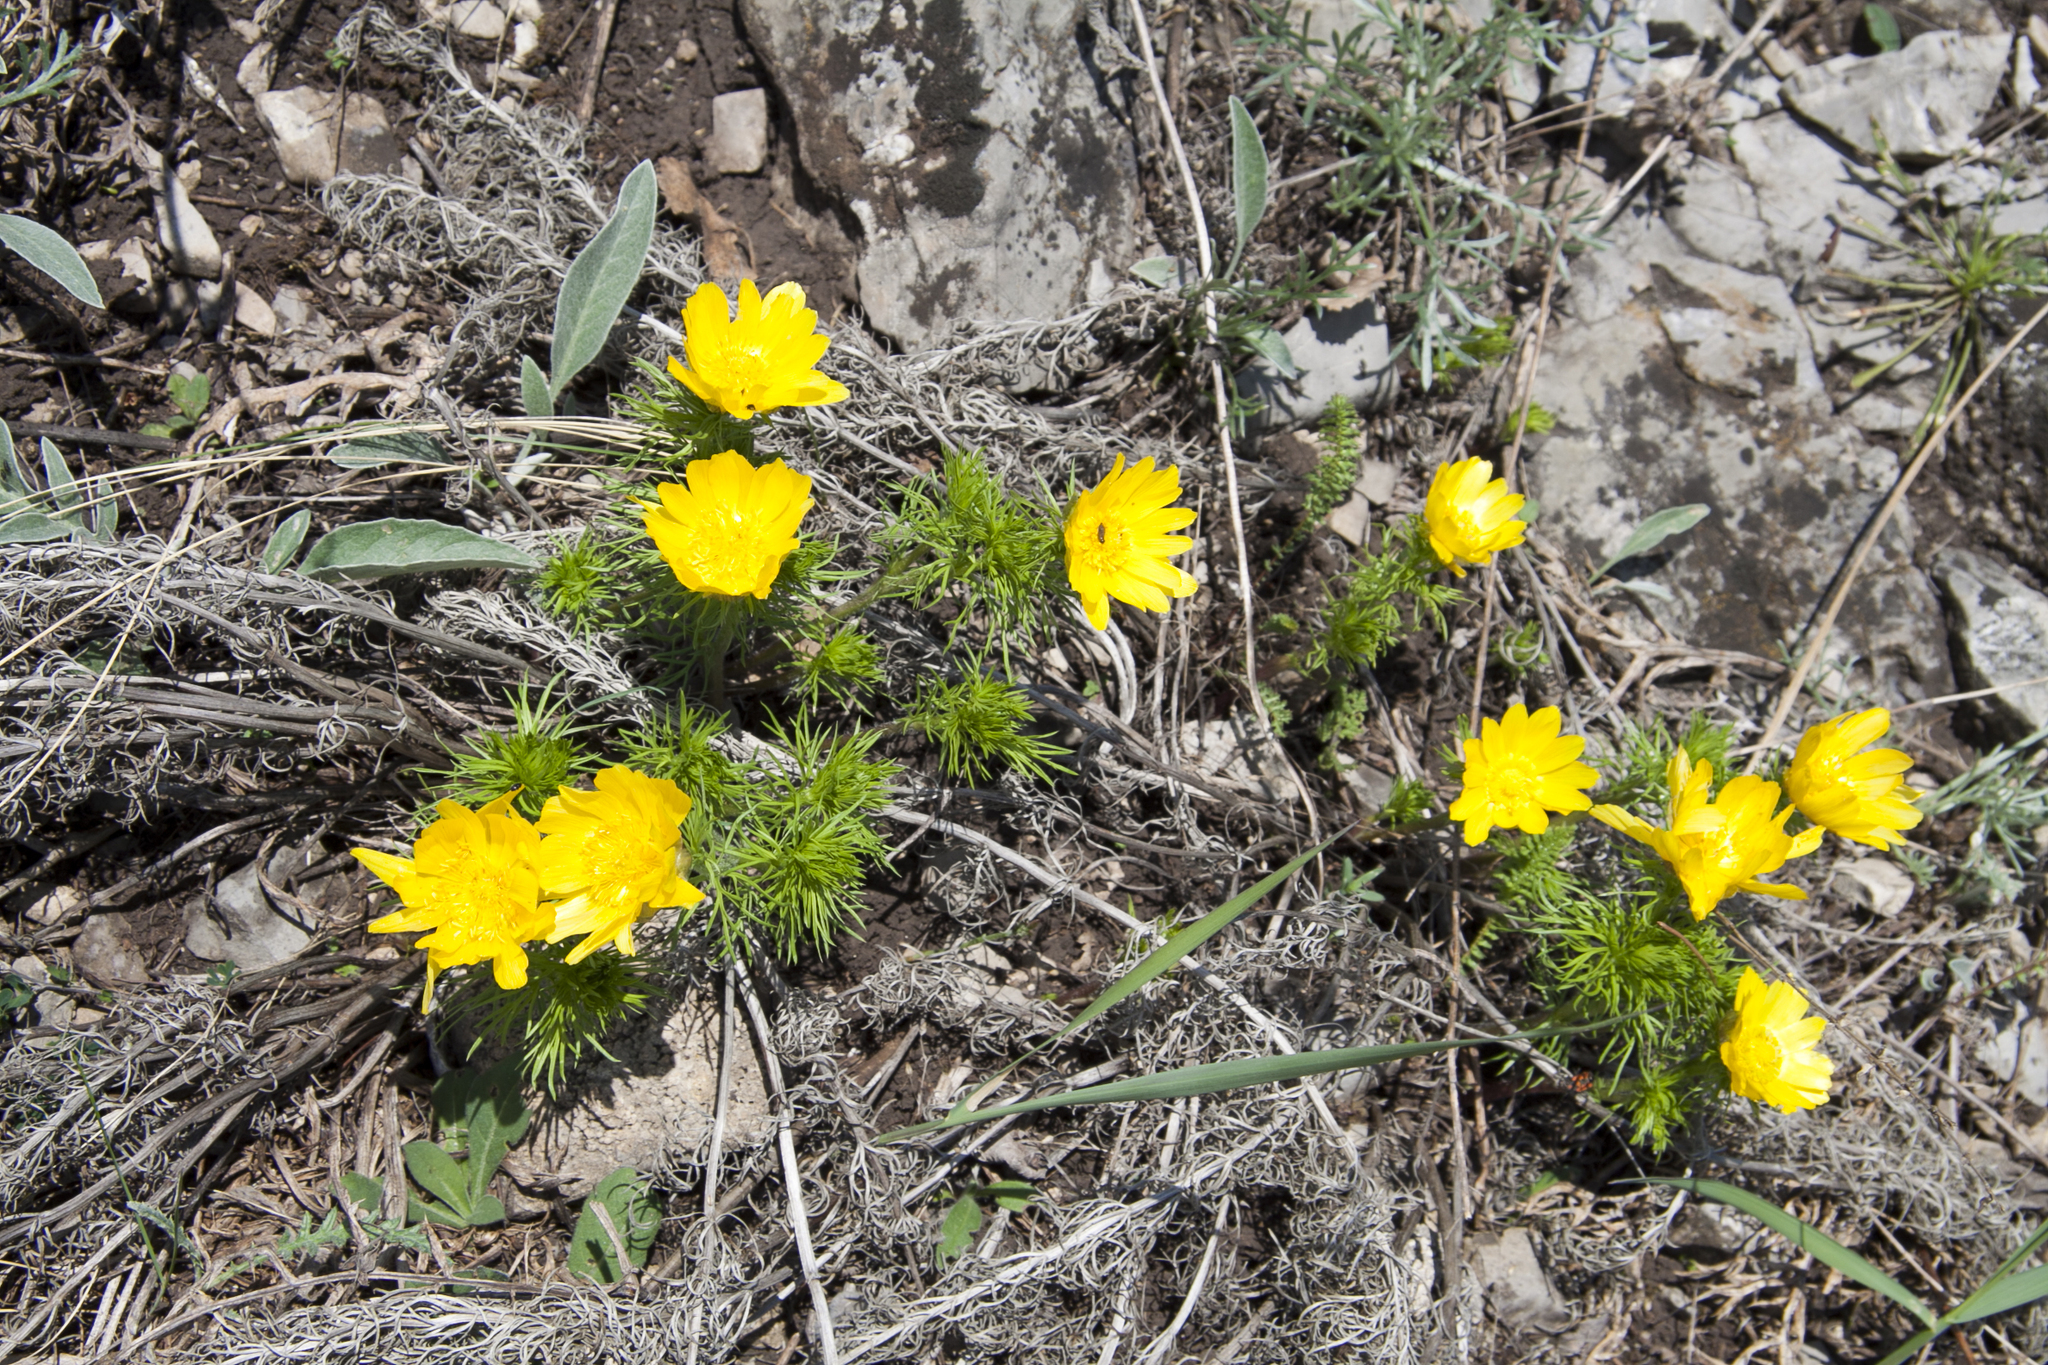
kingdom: Plantae
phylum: Tracheophyta
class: Magnoliopsida
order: Ranunculales
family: Ranunculaceae
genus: Adonis
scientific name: Adonis vernalis
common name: Yellow pheasants-eye
